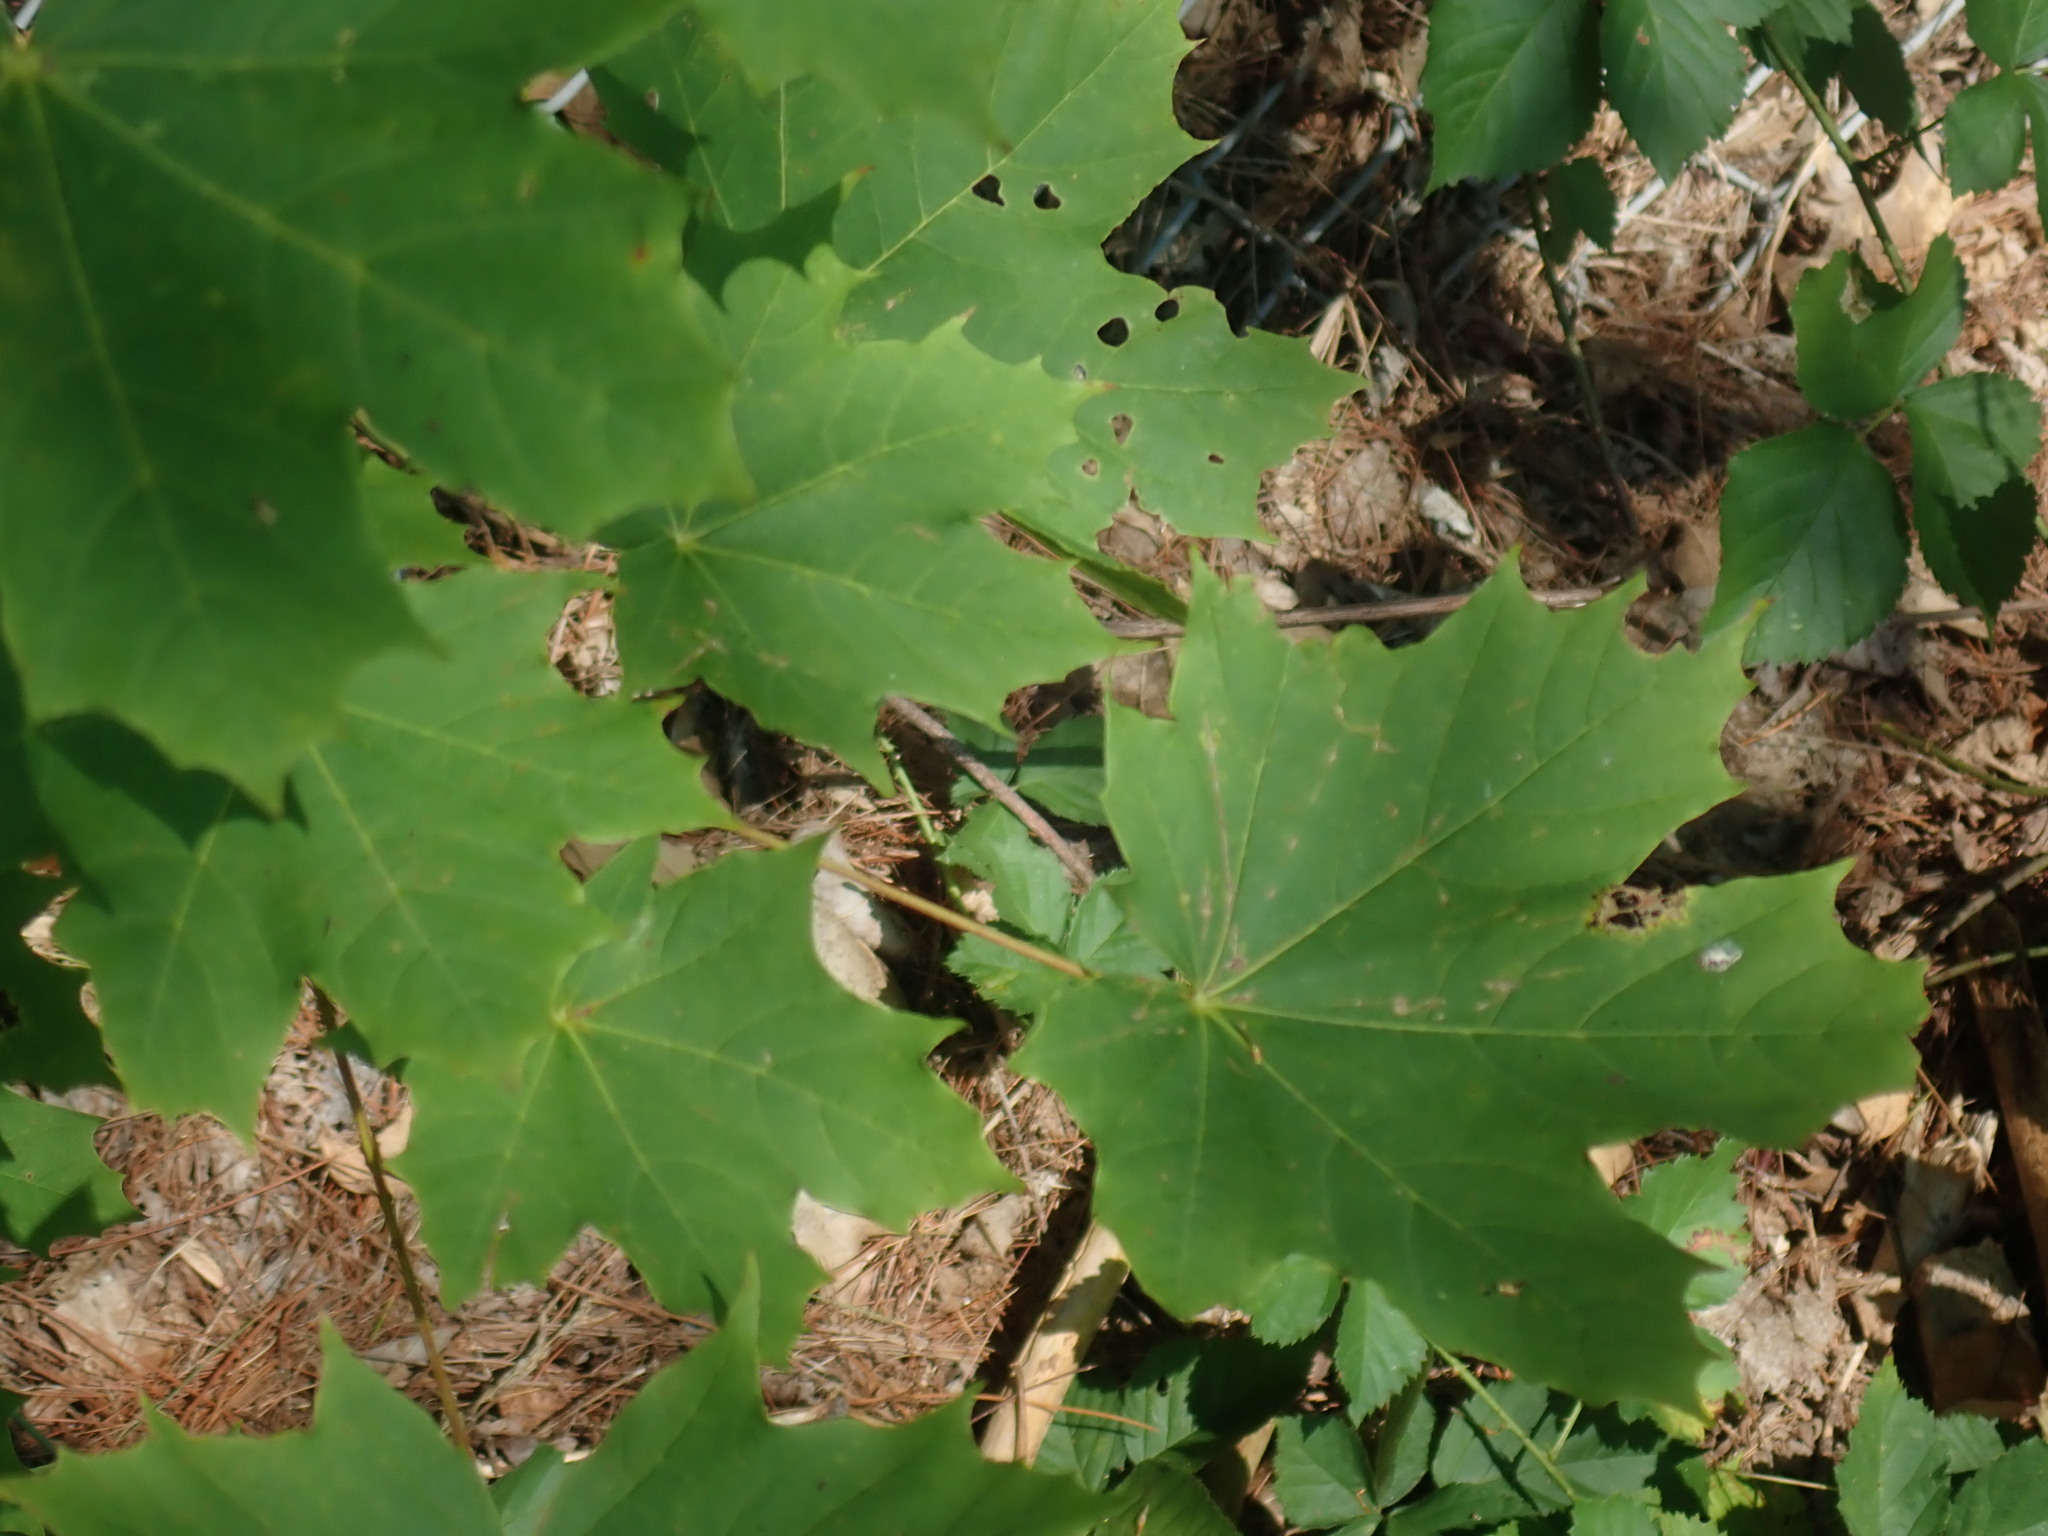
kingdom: Plantae
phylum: Tracheophyta
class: Magnoliopsida
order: Sapindales
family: Sapindaceae
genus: Acer
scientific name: Acer platanoides
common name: Norway maple
